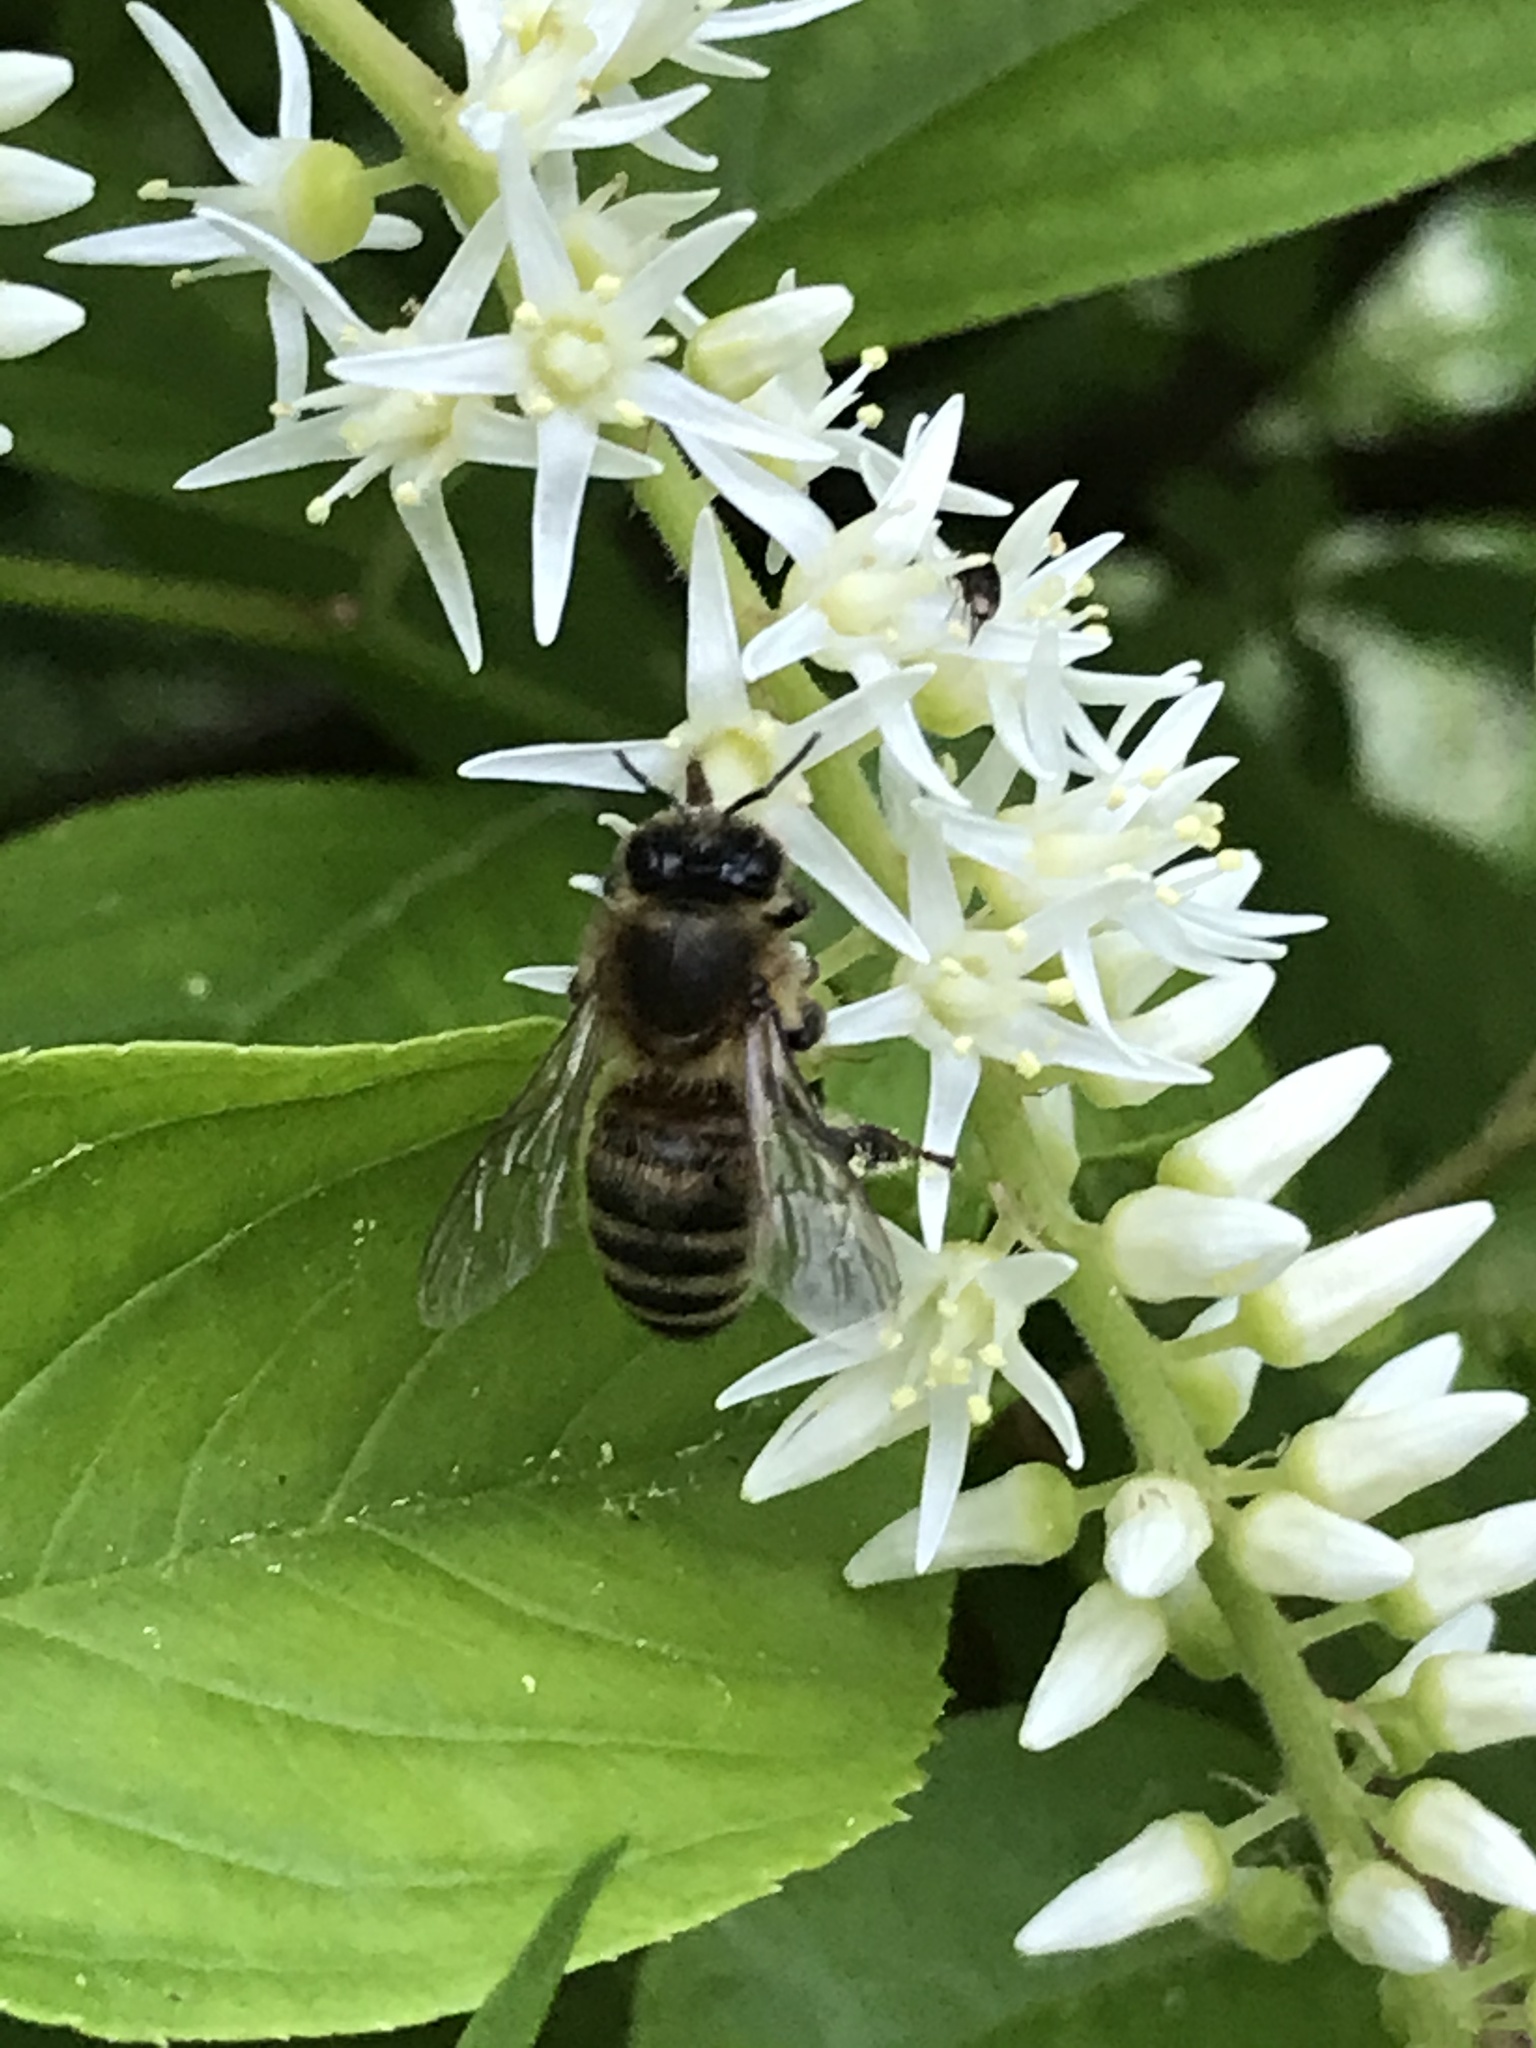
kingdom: Animalia
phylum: Arthropoda
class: Insecta
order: Hymenoptera
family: Apidae
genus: Apis
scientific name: Apis mellifera
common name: Honey bee
